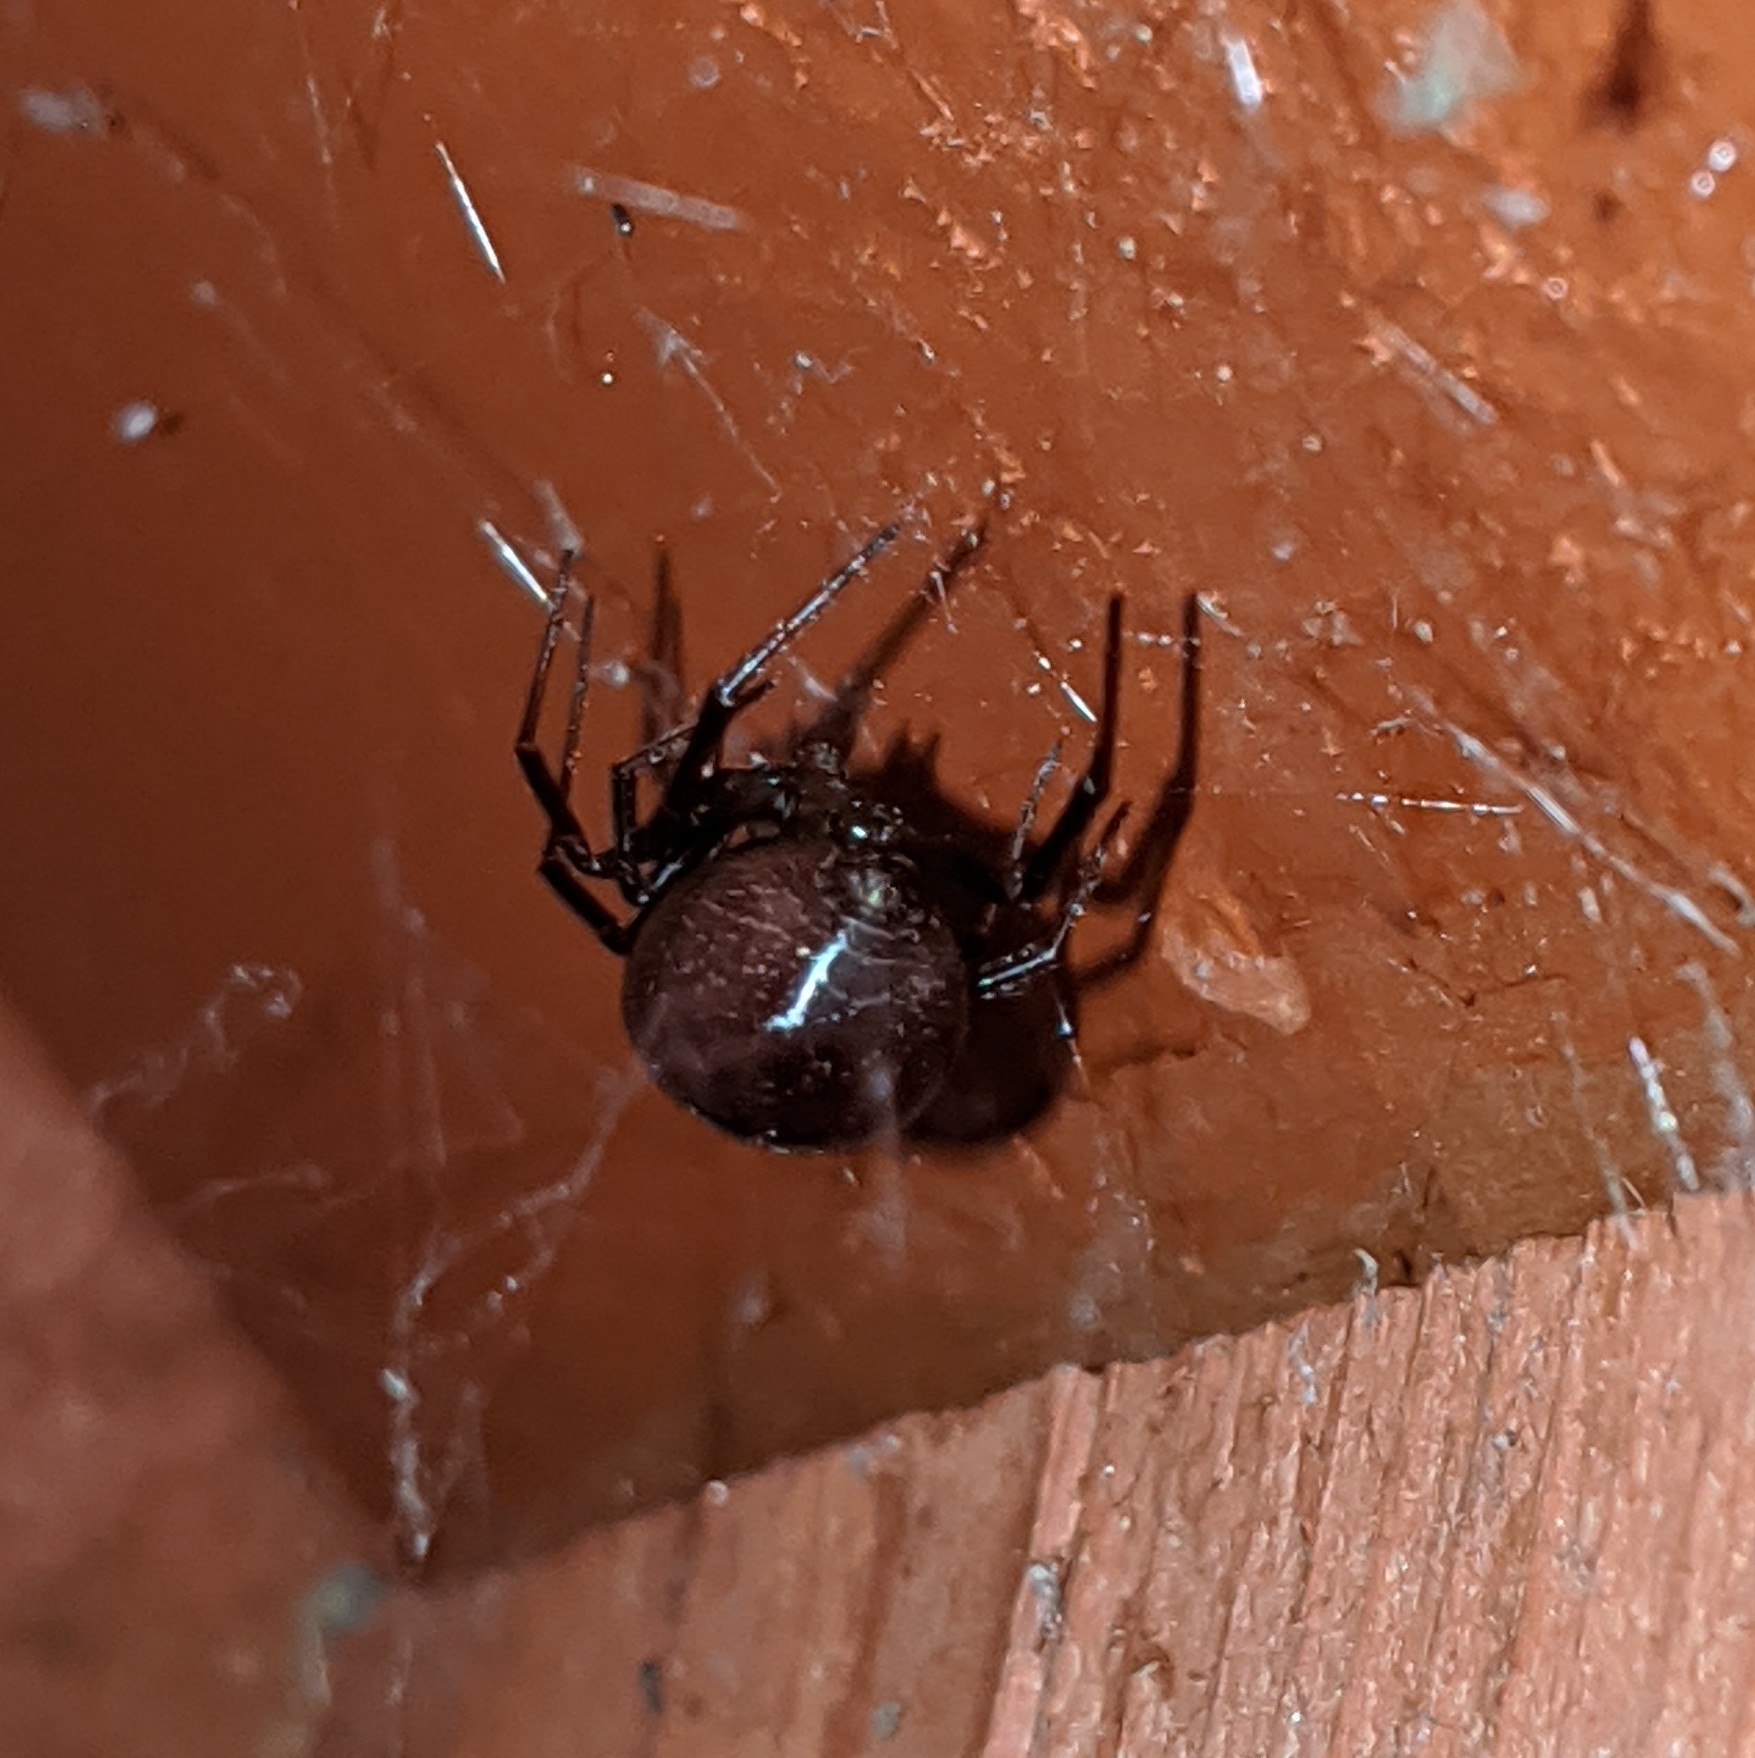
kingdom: Animalia
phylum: Arthropoda
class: Arachnida
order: Araneae
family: Theridiidae
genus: Steatoda
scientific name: Steatoda grossa
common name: False black widow
